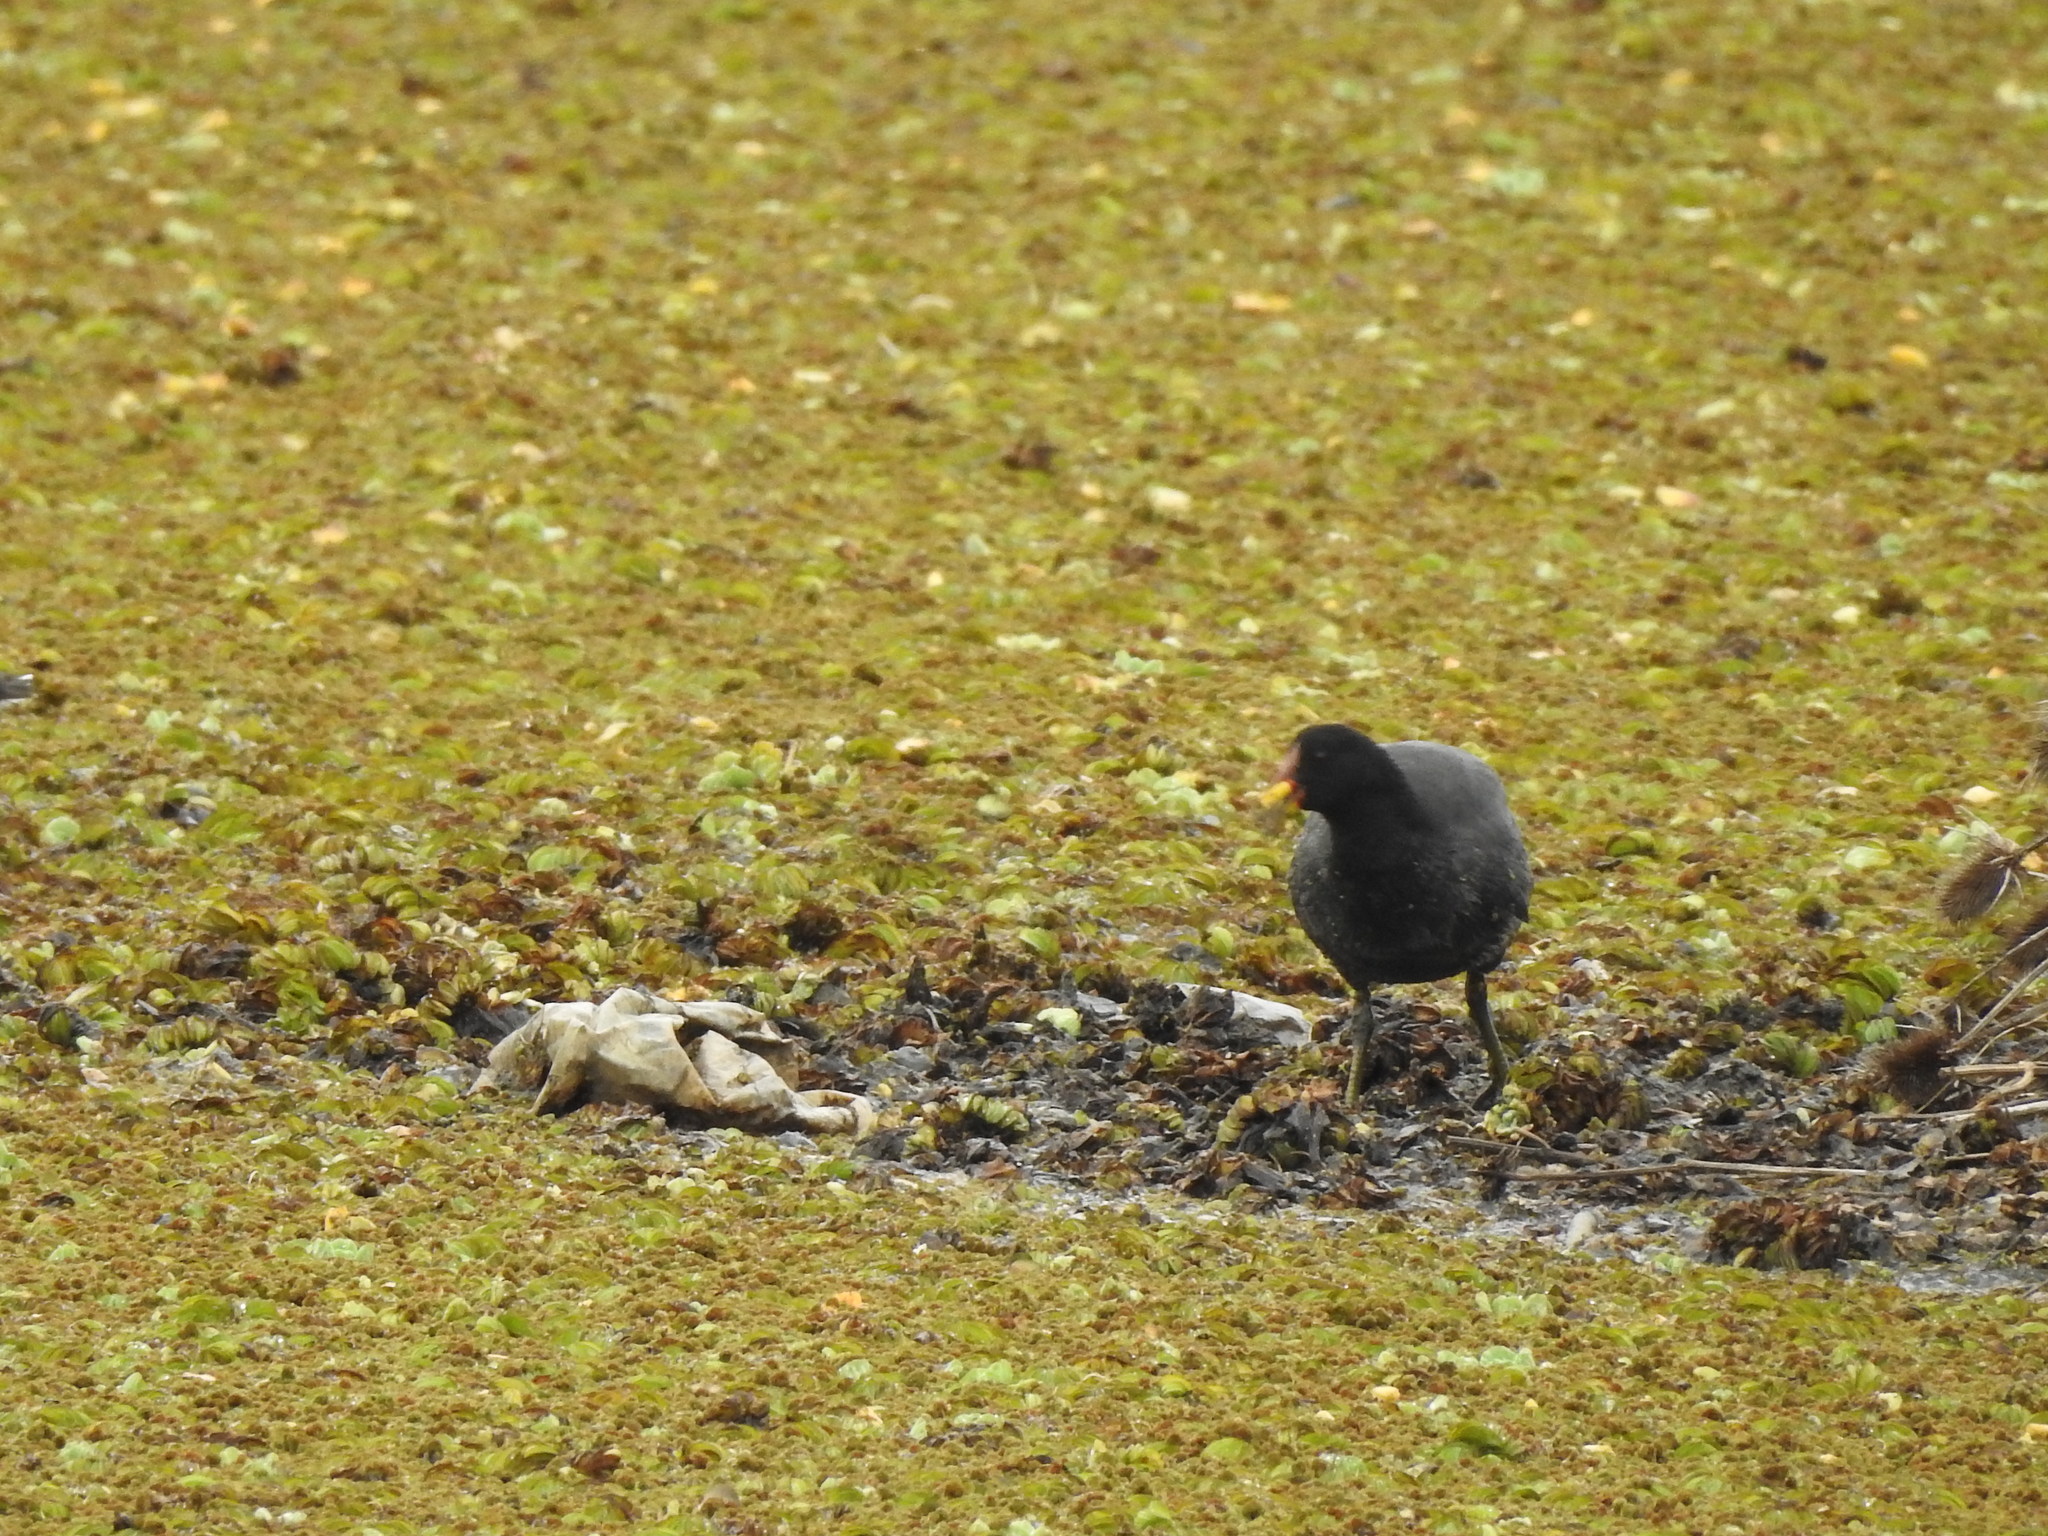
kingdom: Animalia
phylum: Chordata
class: Aves
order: Gruiformes
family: Rallidae
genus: Fulica
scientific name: Fulica rufifrons
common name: Red-fronted coot
